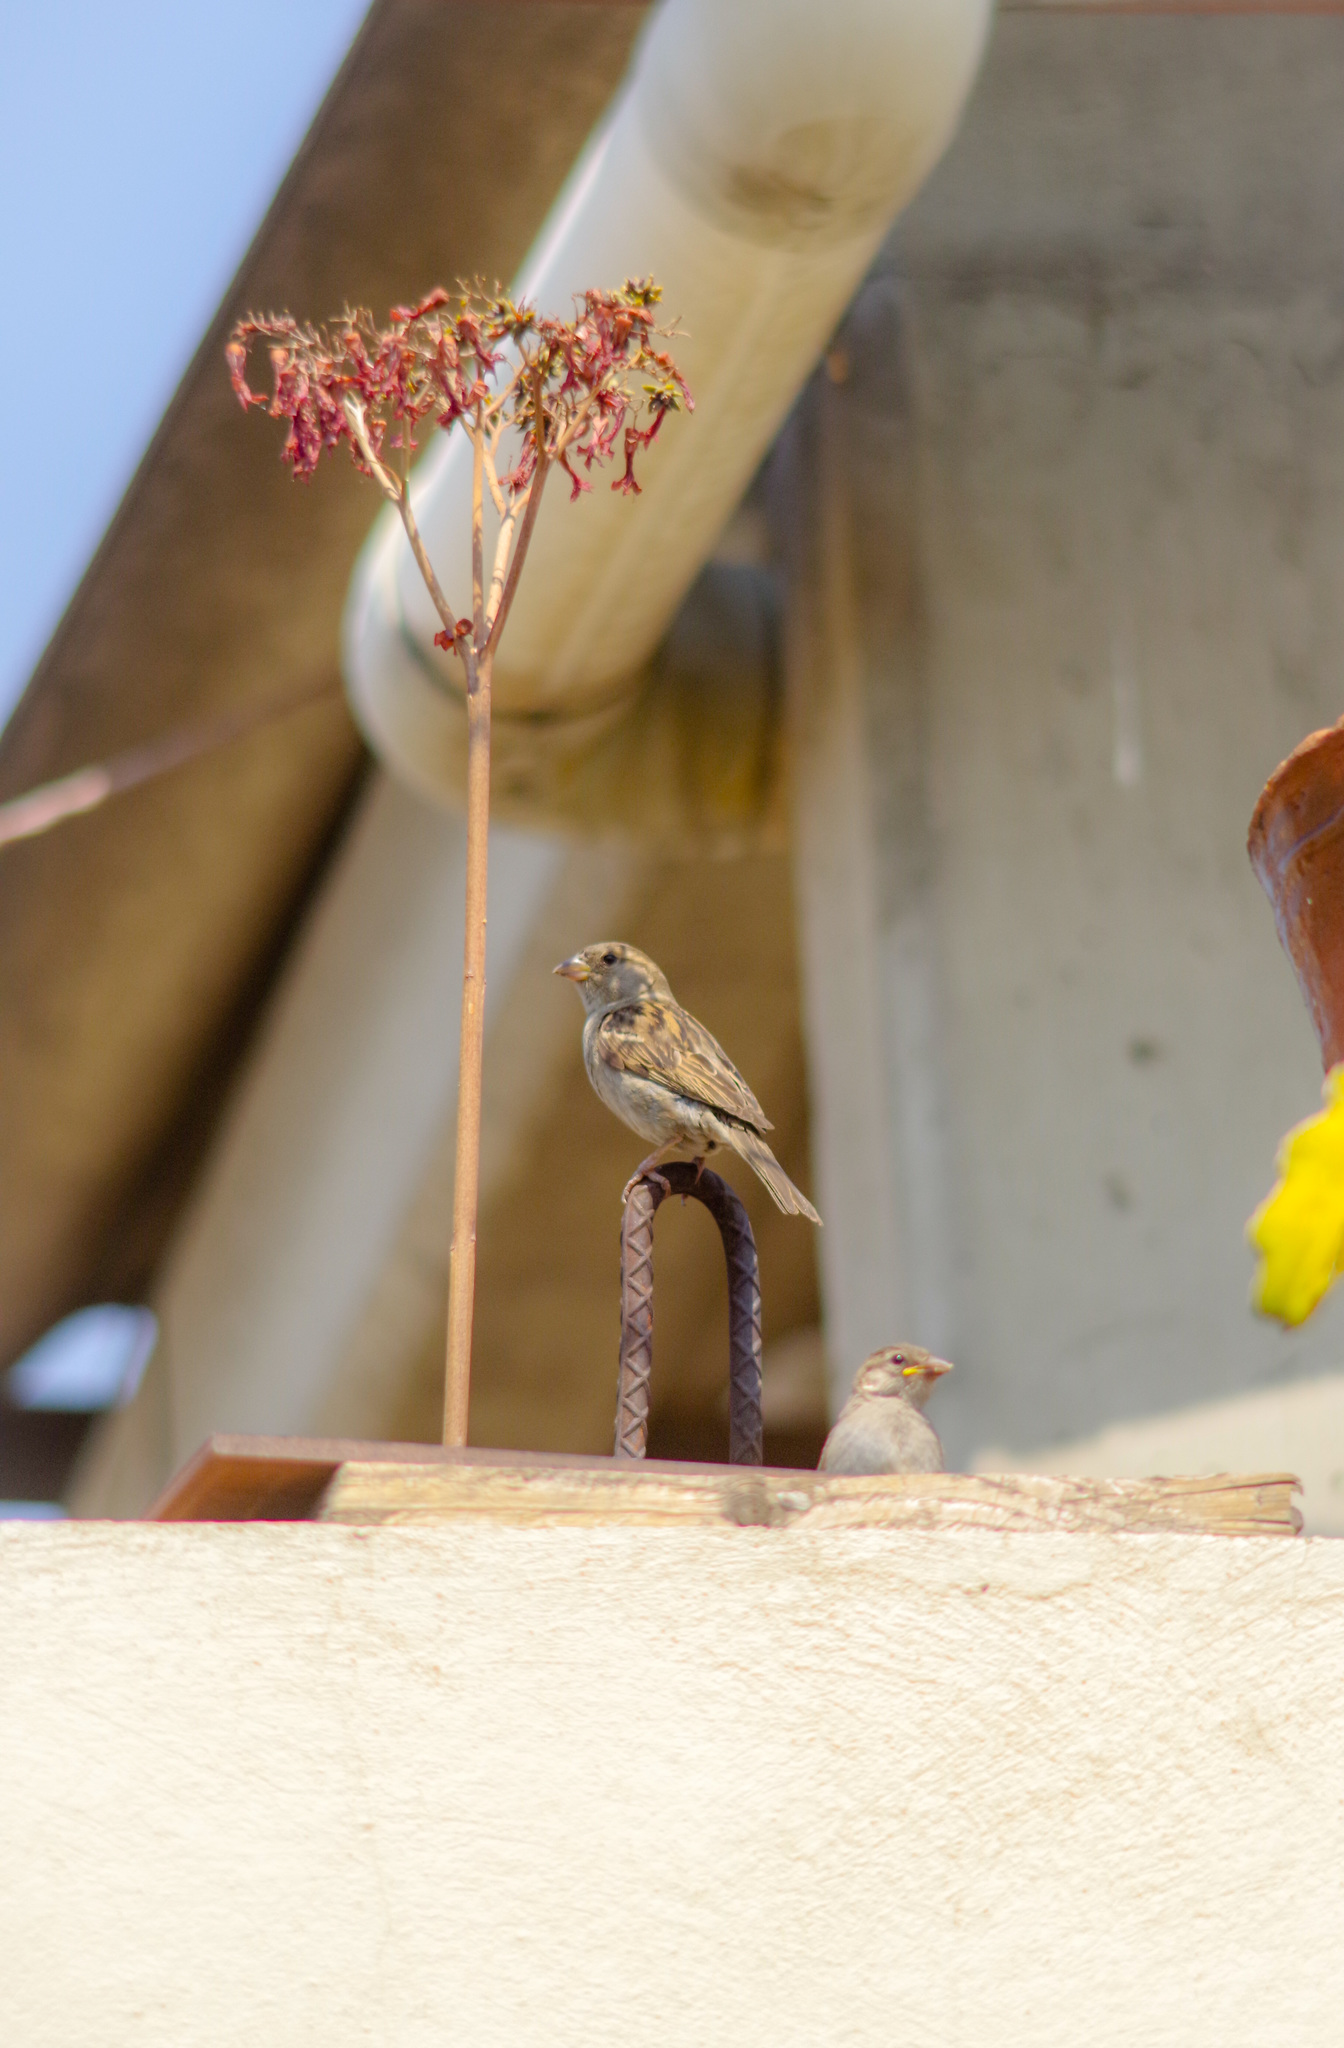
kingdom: Animalia
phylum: Chordata
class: Aves
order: Passeriformes
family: Passeridae
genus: Passer
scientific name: Passer domesticus
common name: House sparrow
